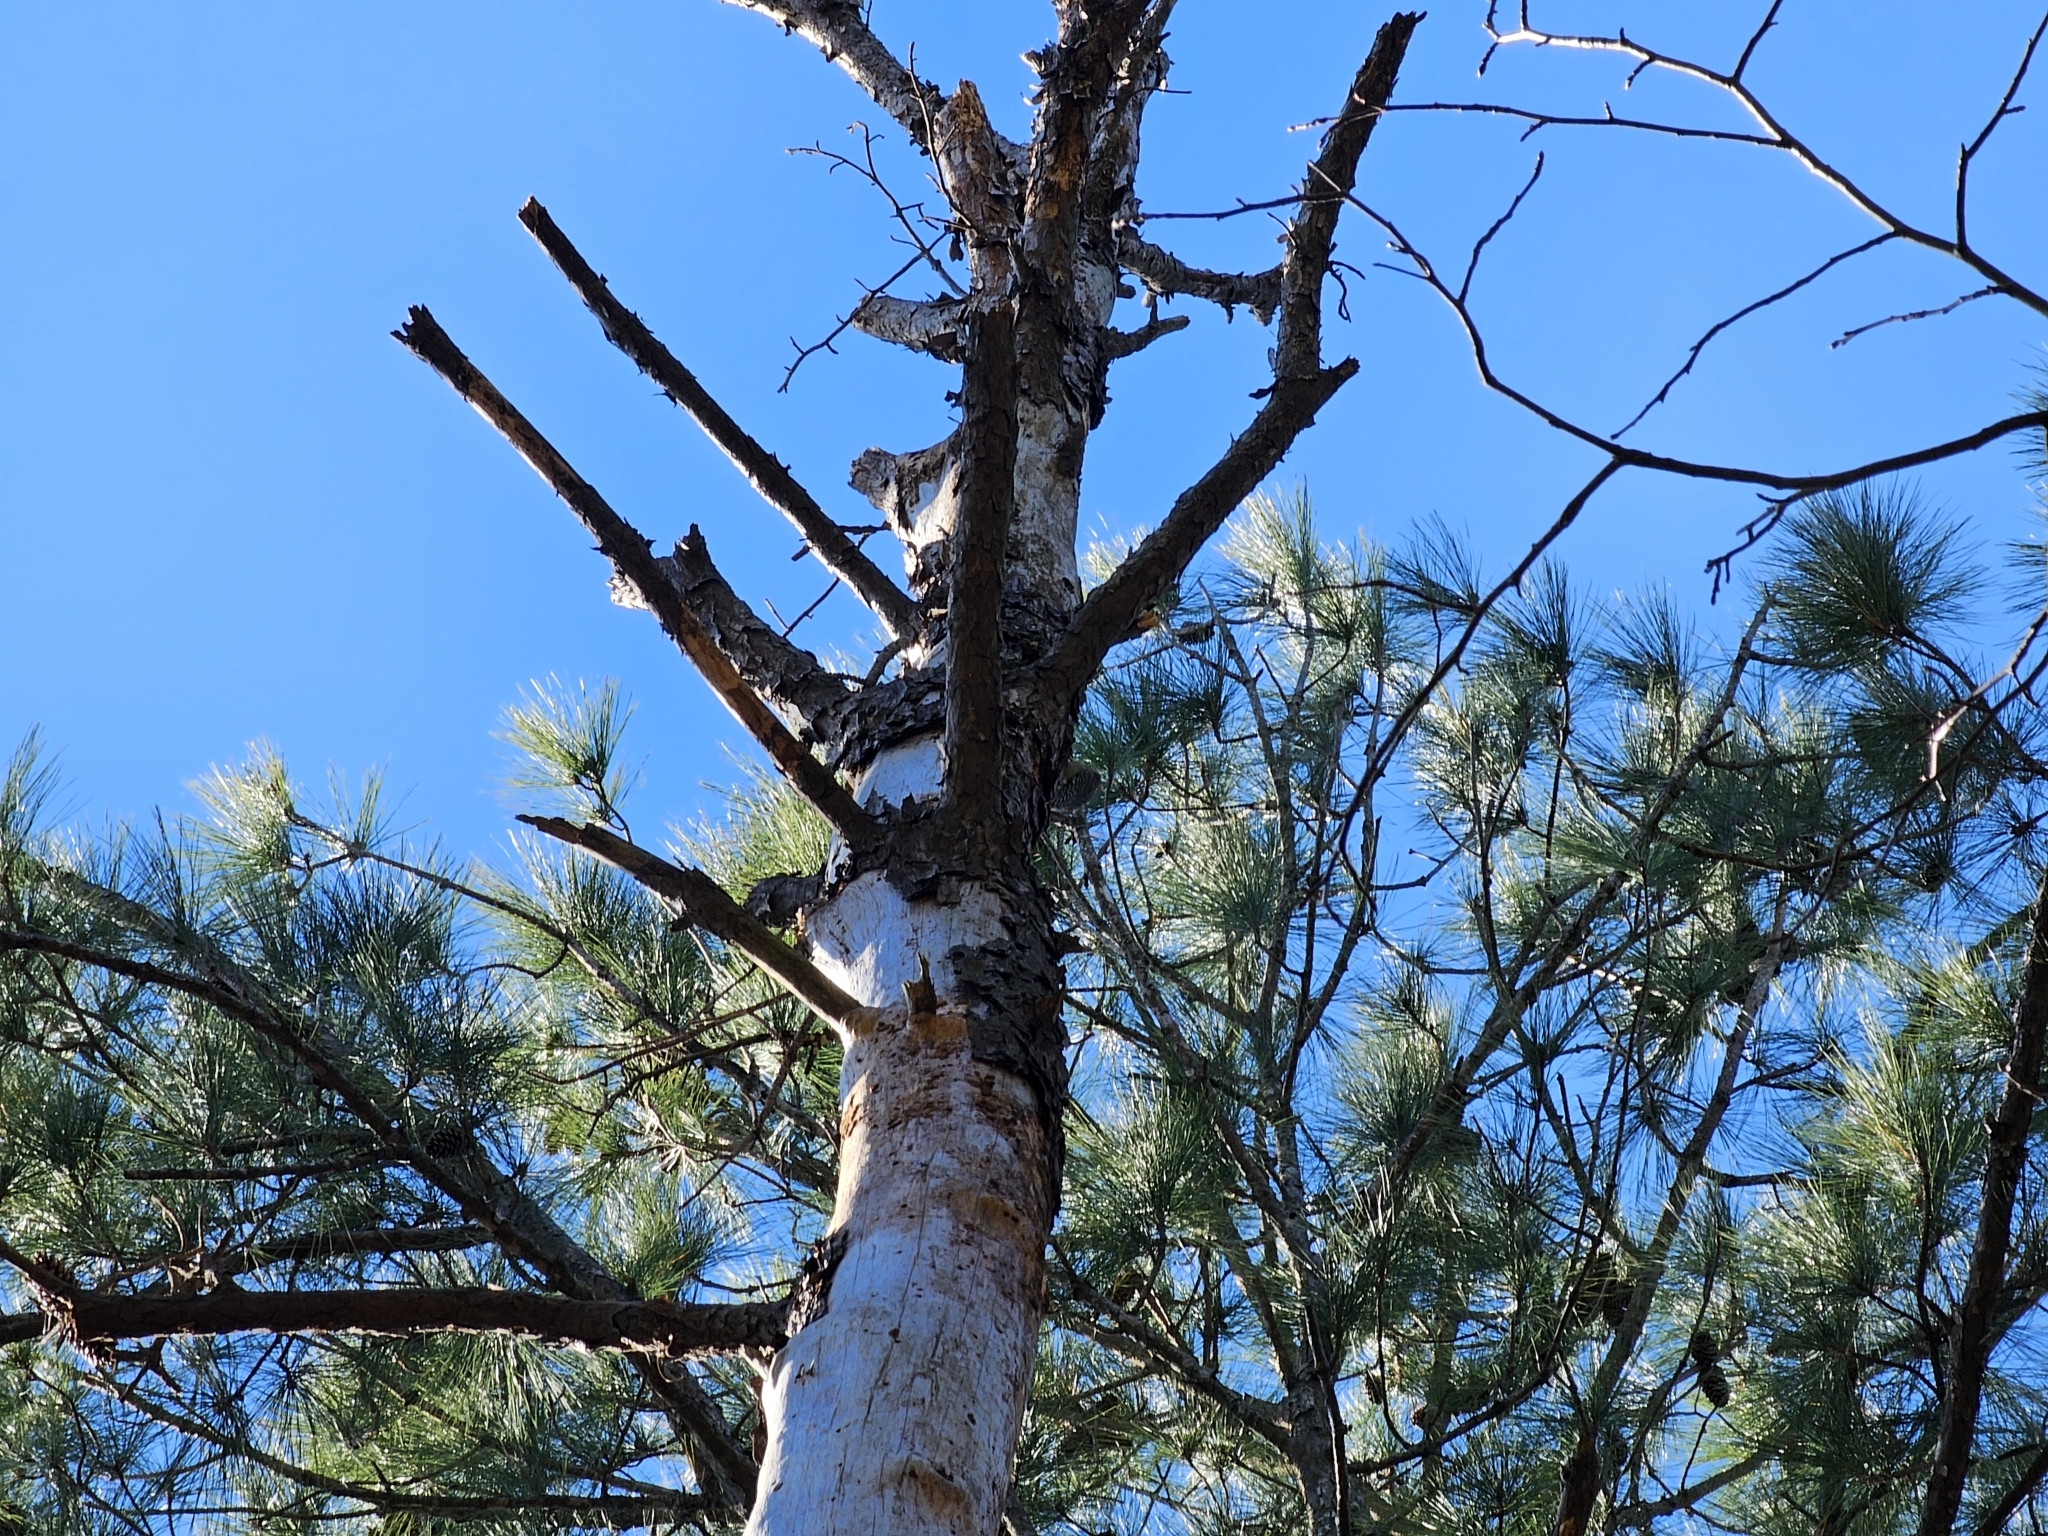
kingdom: Animalia
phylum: Chordata
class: Aves
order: Piciformes
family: Picidae
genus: Melanerpes
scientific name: Melanerpes carolinus
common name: Red-bellied woodpecker
